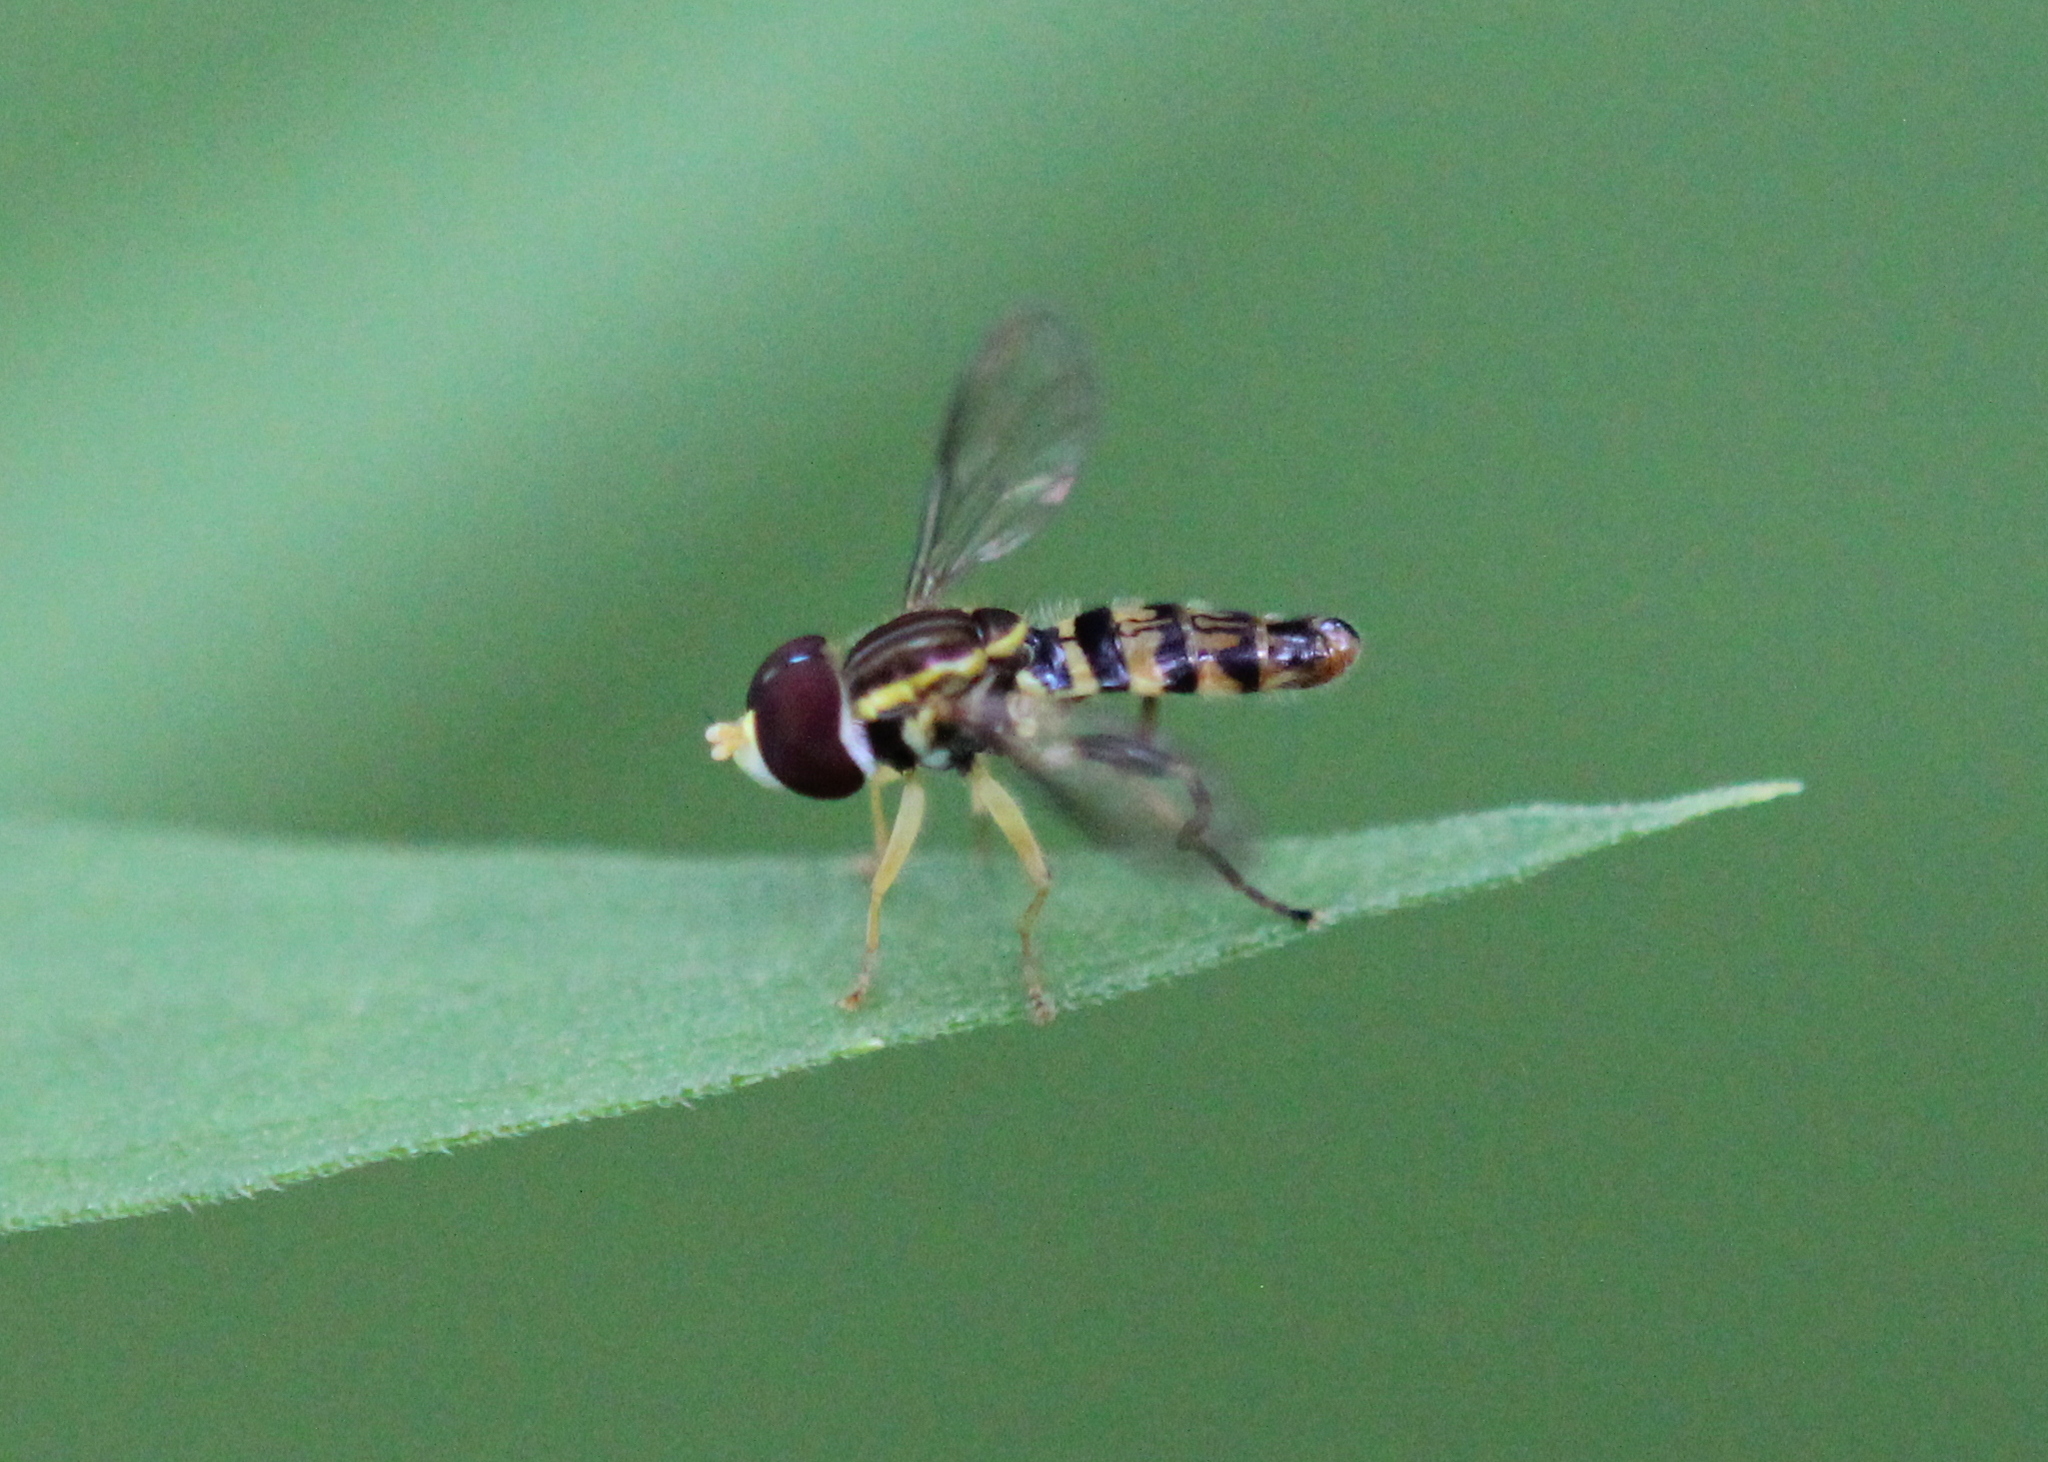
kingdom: Animalia
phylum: Arthropoda
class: Insecta
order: Diptera
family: Syrphidae
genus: Toxomerus
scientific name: Toxomerus geminatus
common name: Eastern calligrapher
